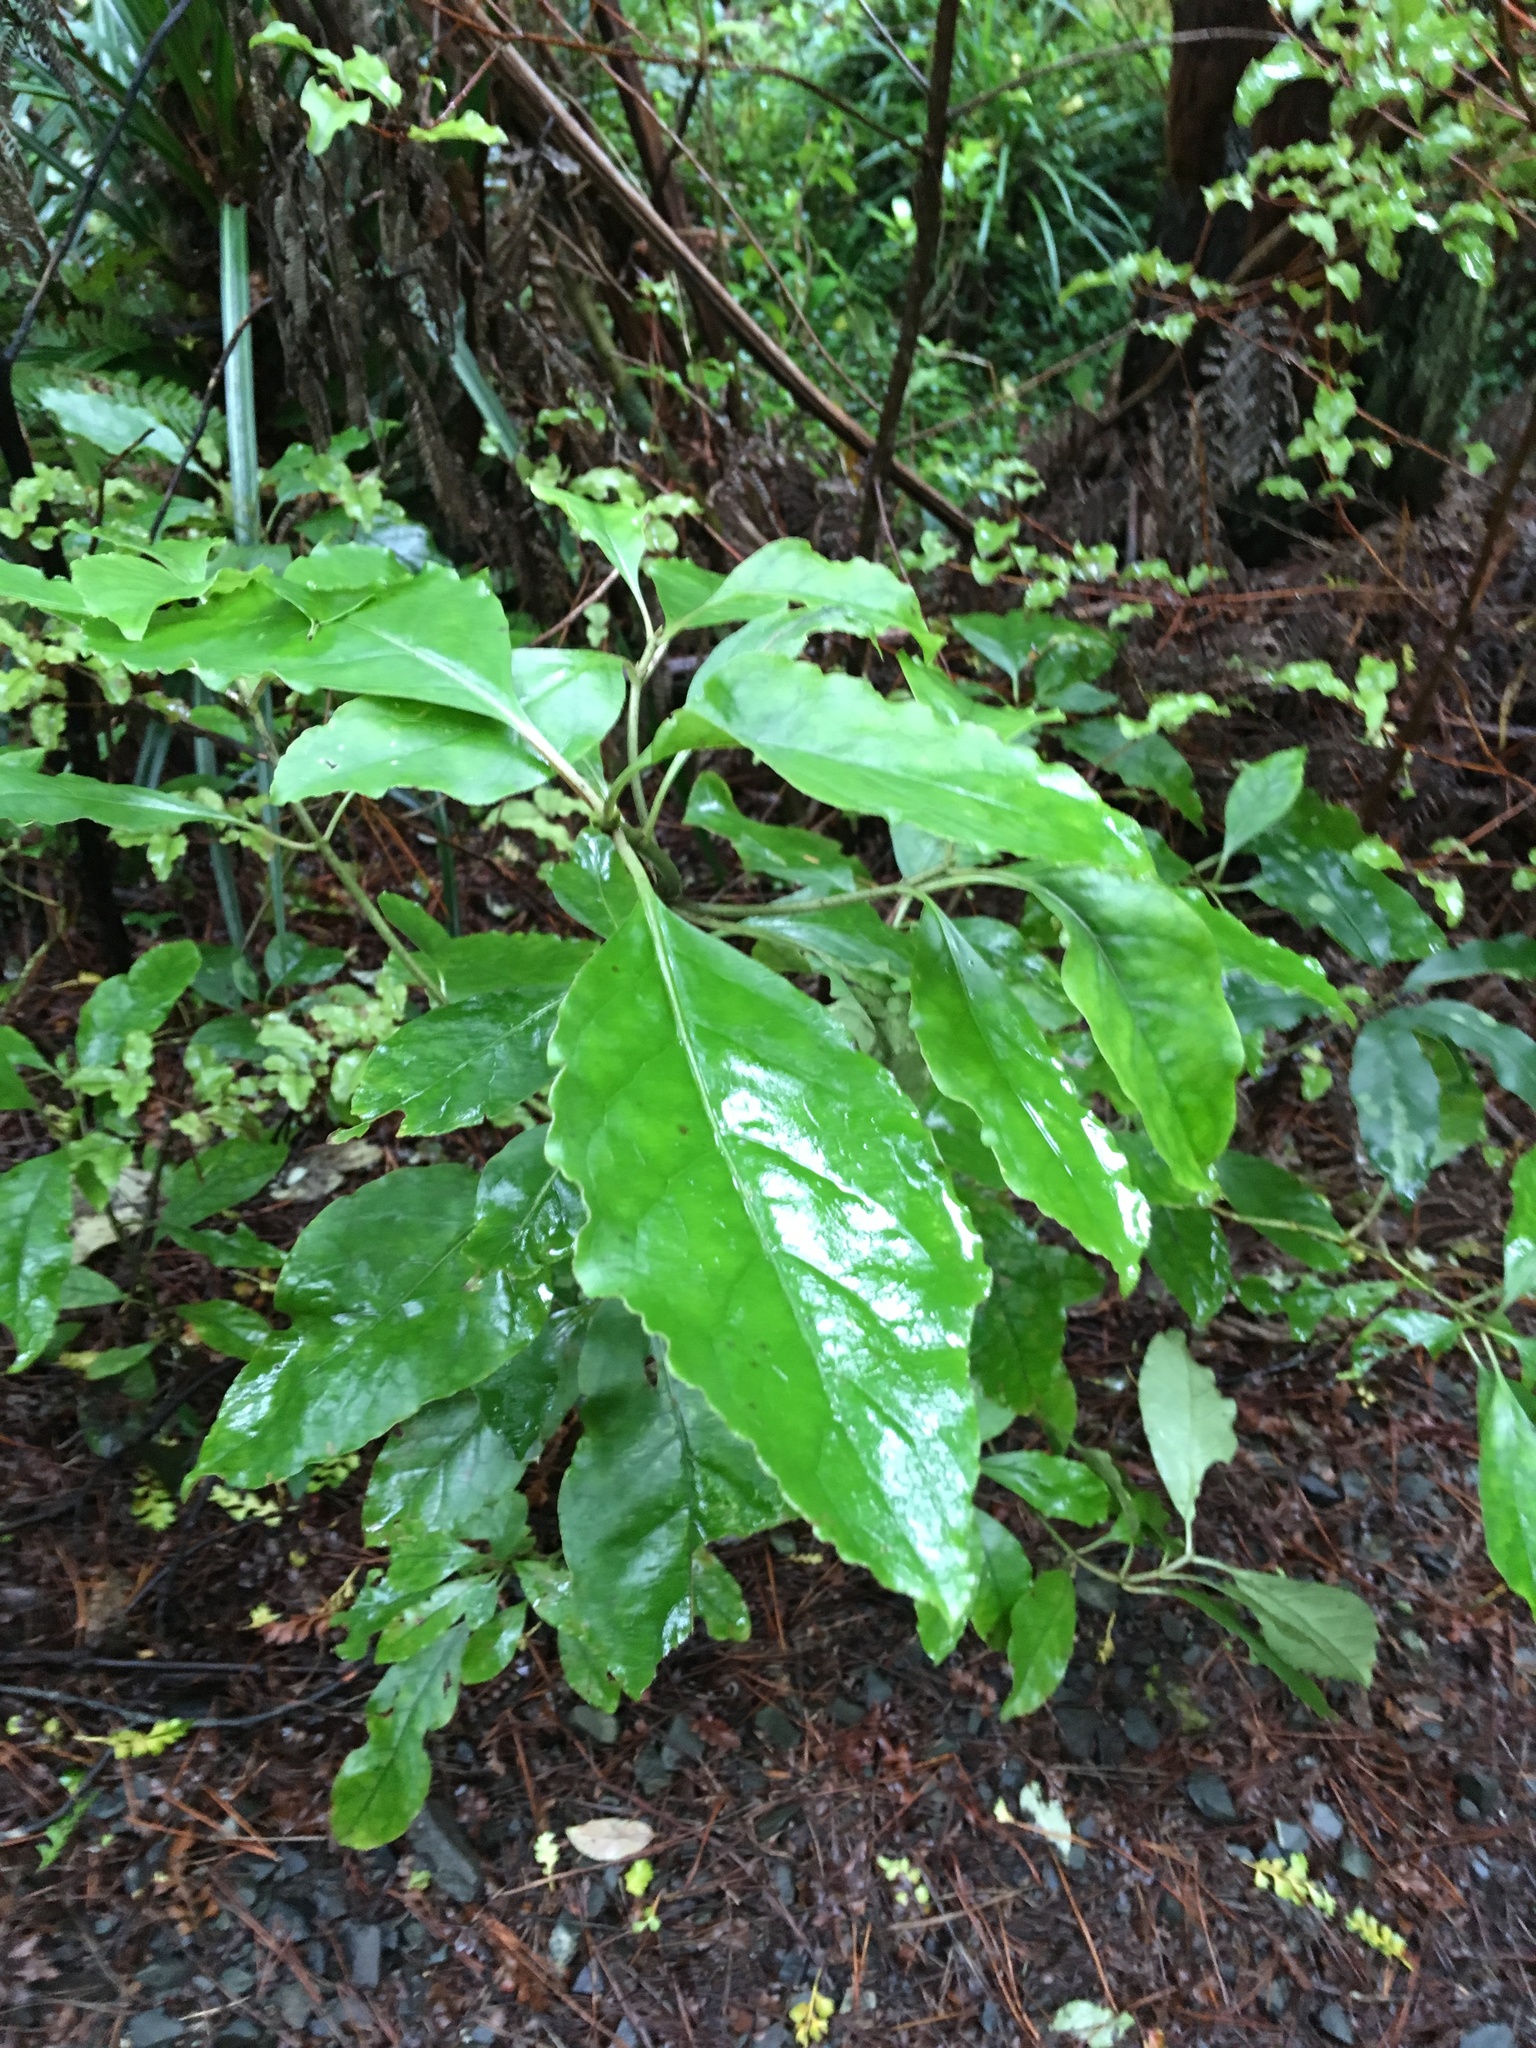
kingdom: Plantae
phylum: Tracheophyta
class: Magnoliopsida
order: Gentianales
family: Rubiaceae
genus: Coprosma
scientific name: Coprosma autumnalis
